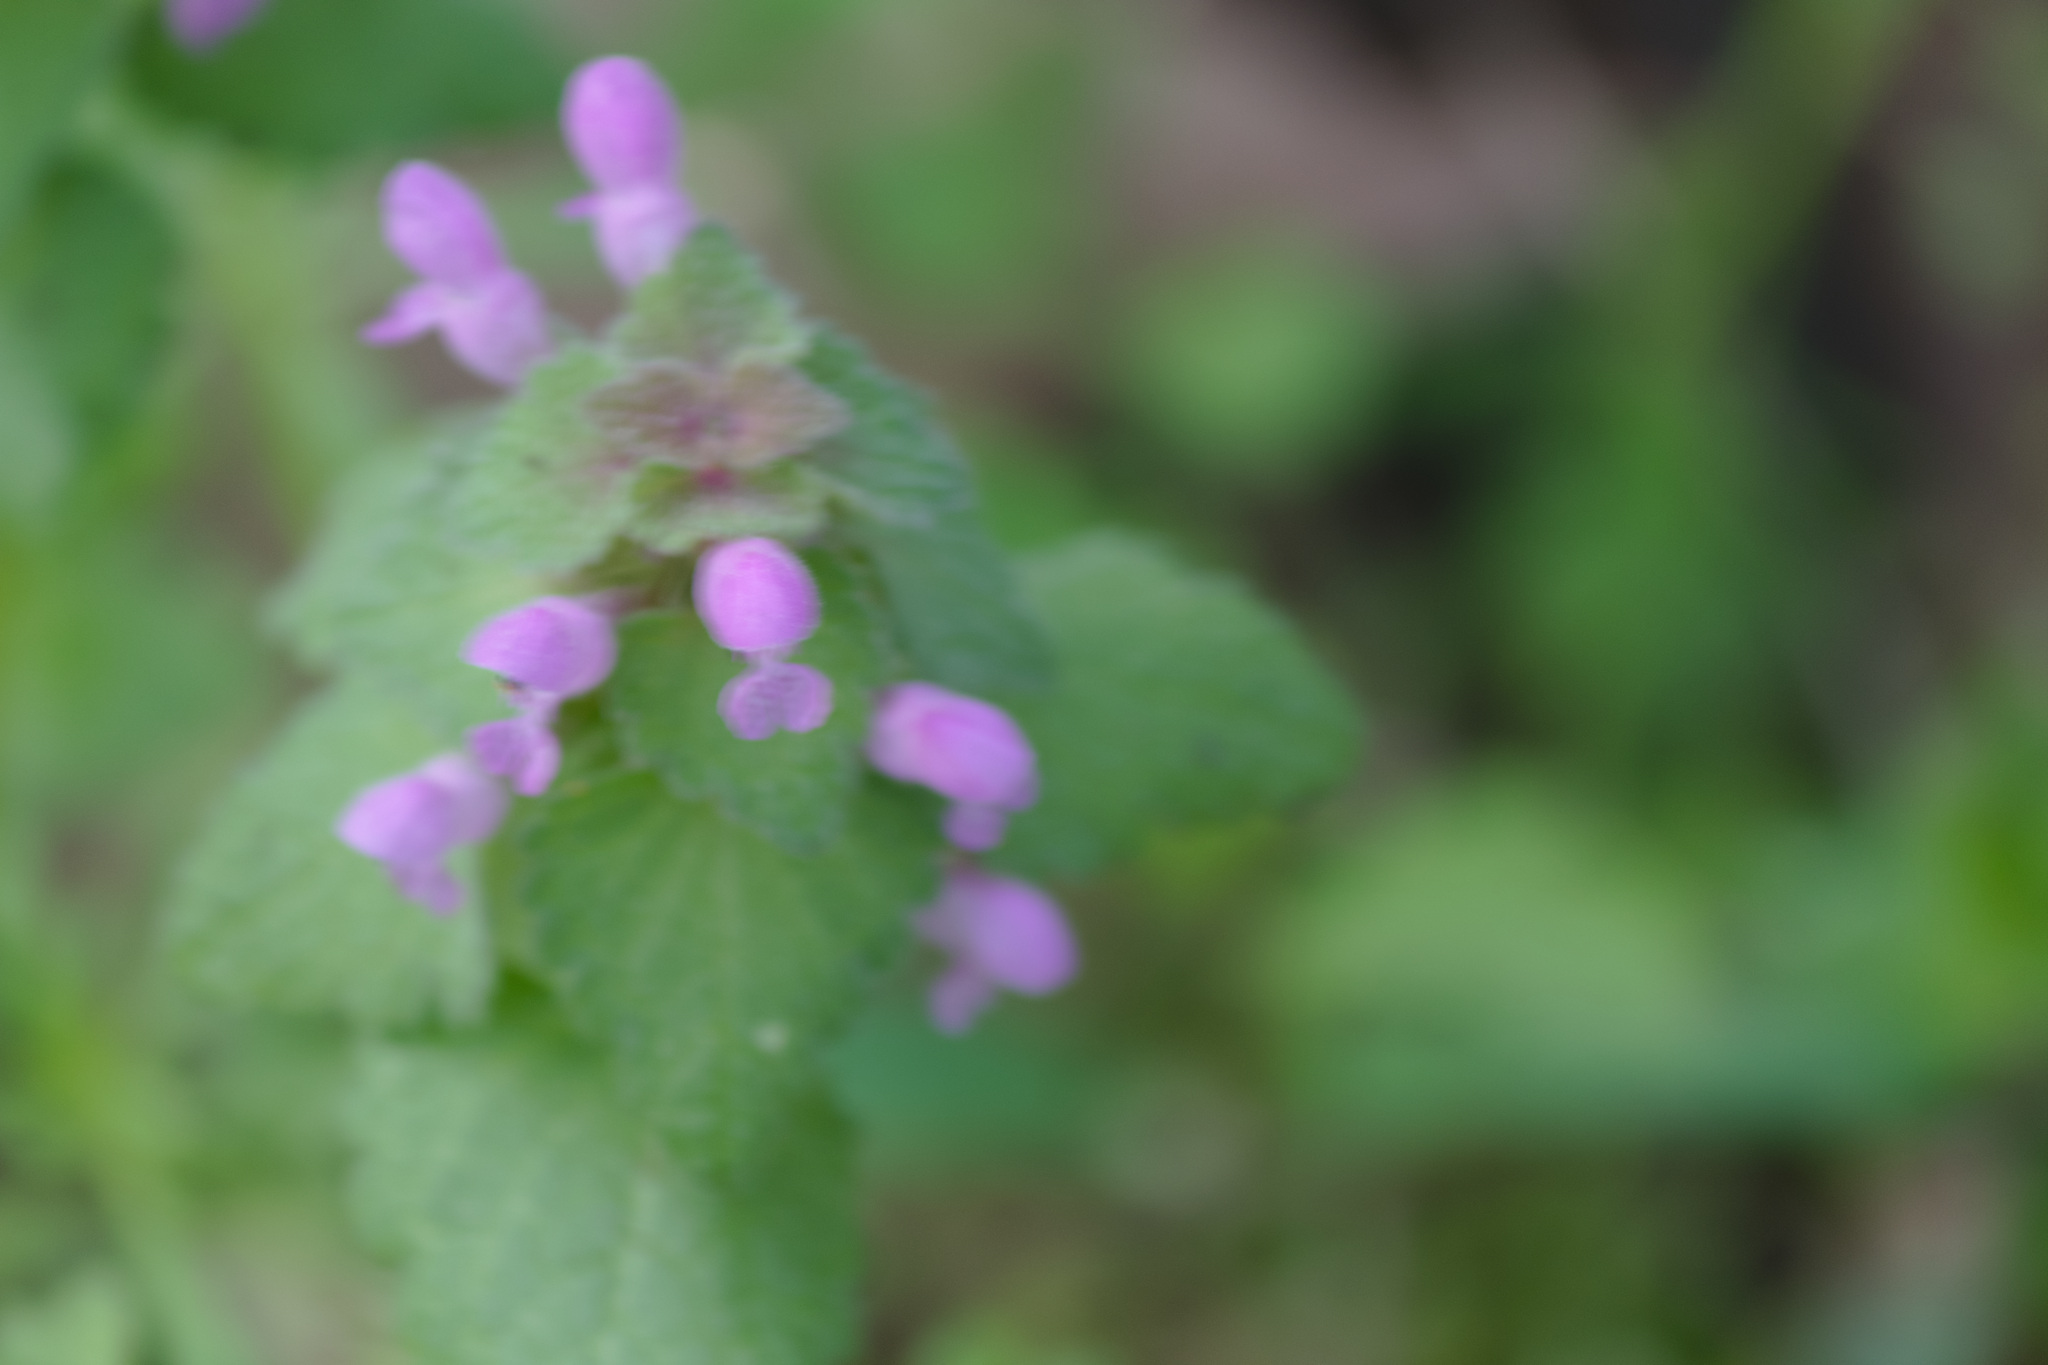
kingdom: Plantae
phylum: Tracheophyta
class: Magnoliopsida
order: Lamiales
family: Lamiaceae
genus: Lamium
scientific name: Lamium purpureum
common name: Red dead-nettle
